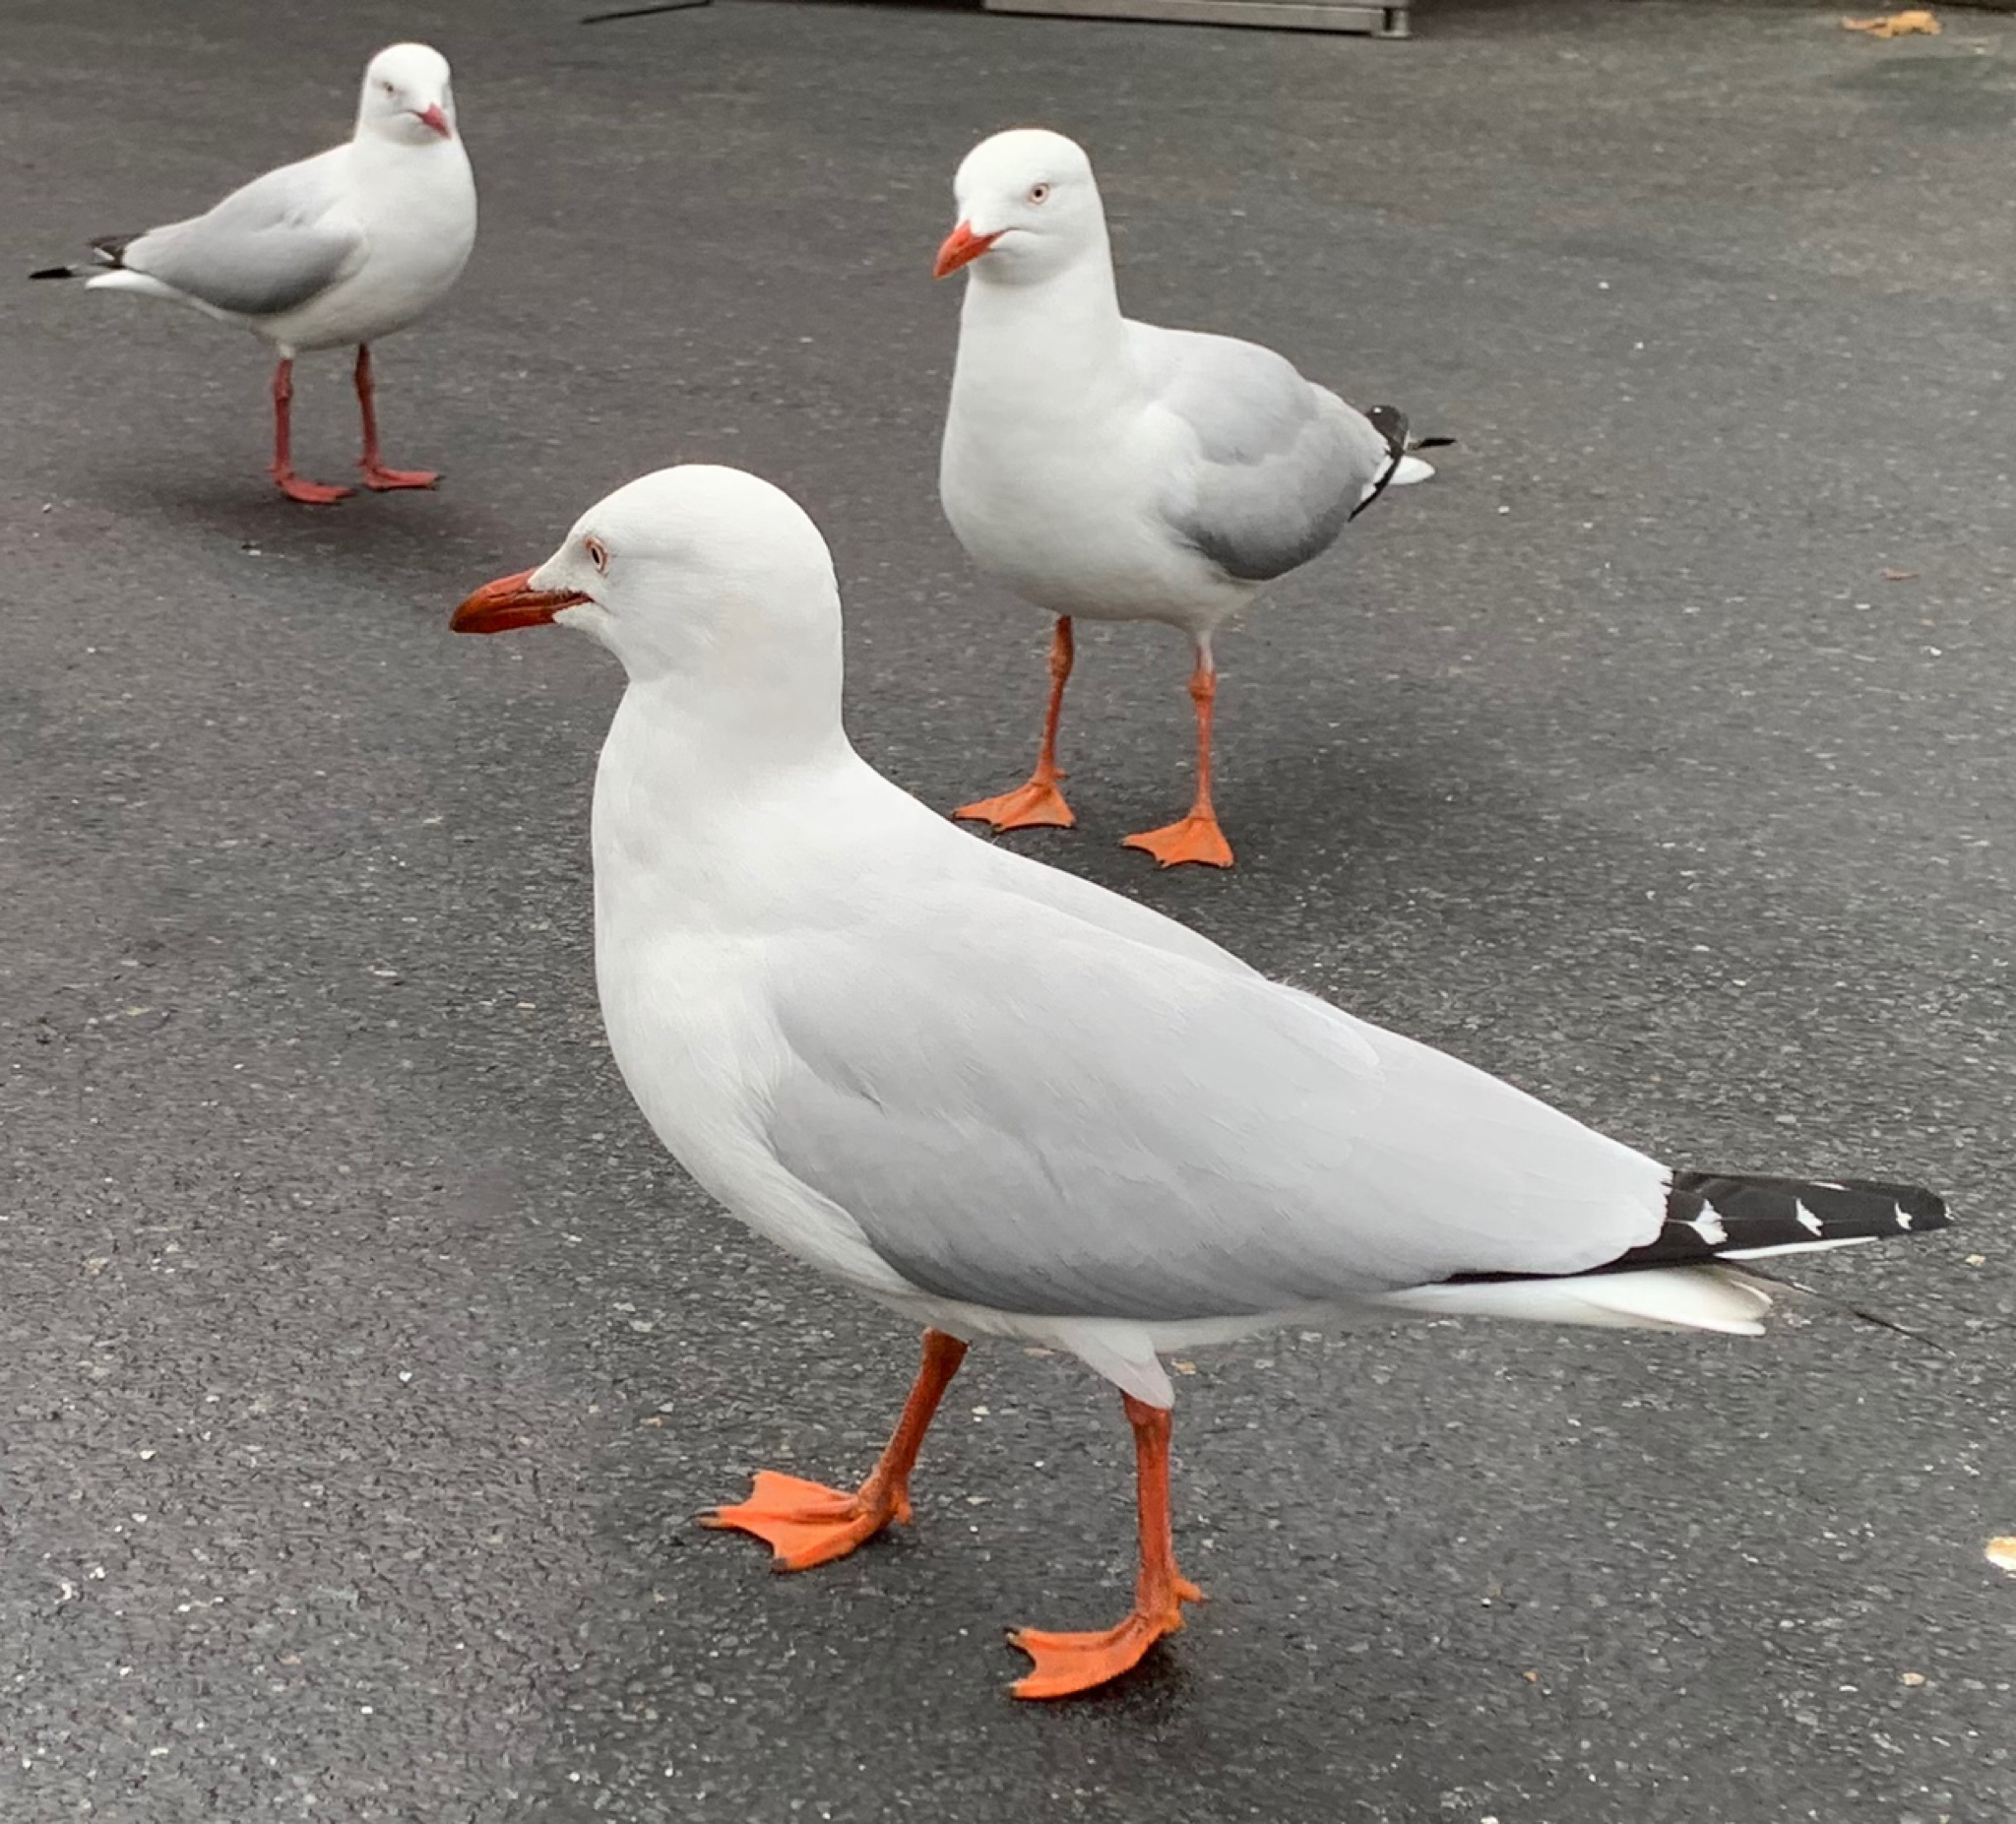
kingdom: Animalia
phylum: Chordata
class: Aves
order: Charadriiformes
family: Laridae
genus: Chroicocephalus
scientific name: Chroicocephalus novaehollandiae
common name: Silver gull
